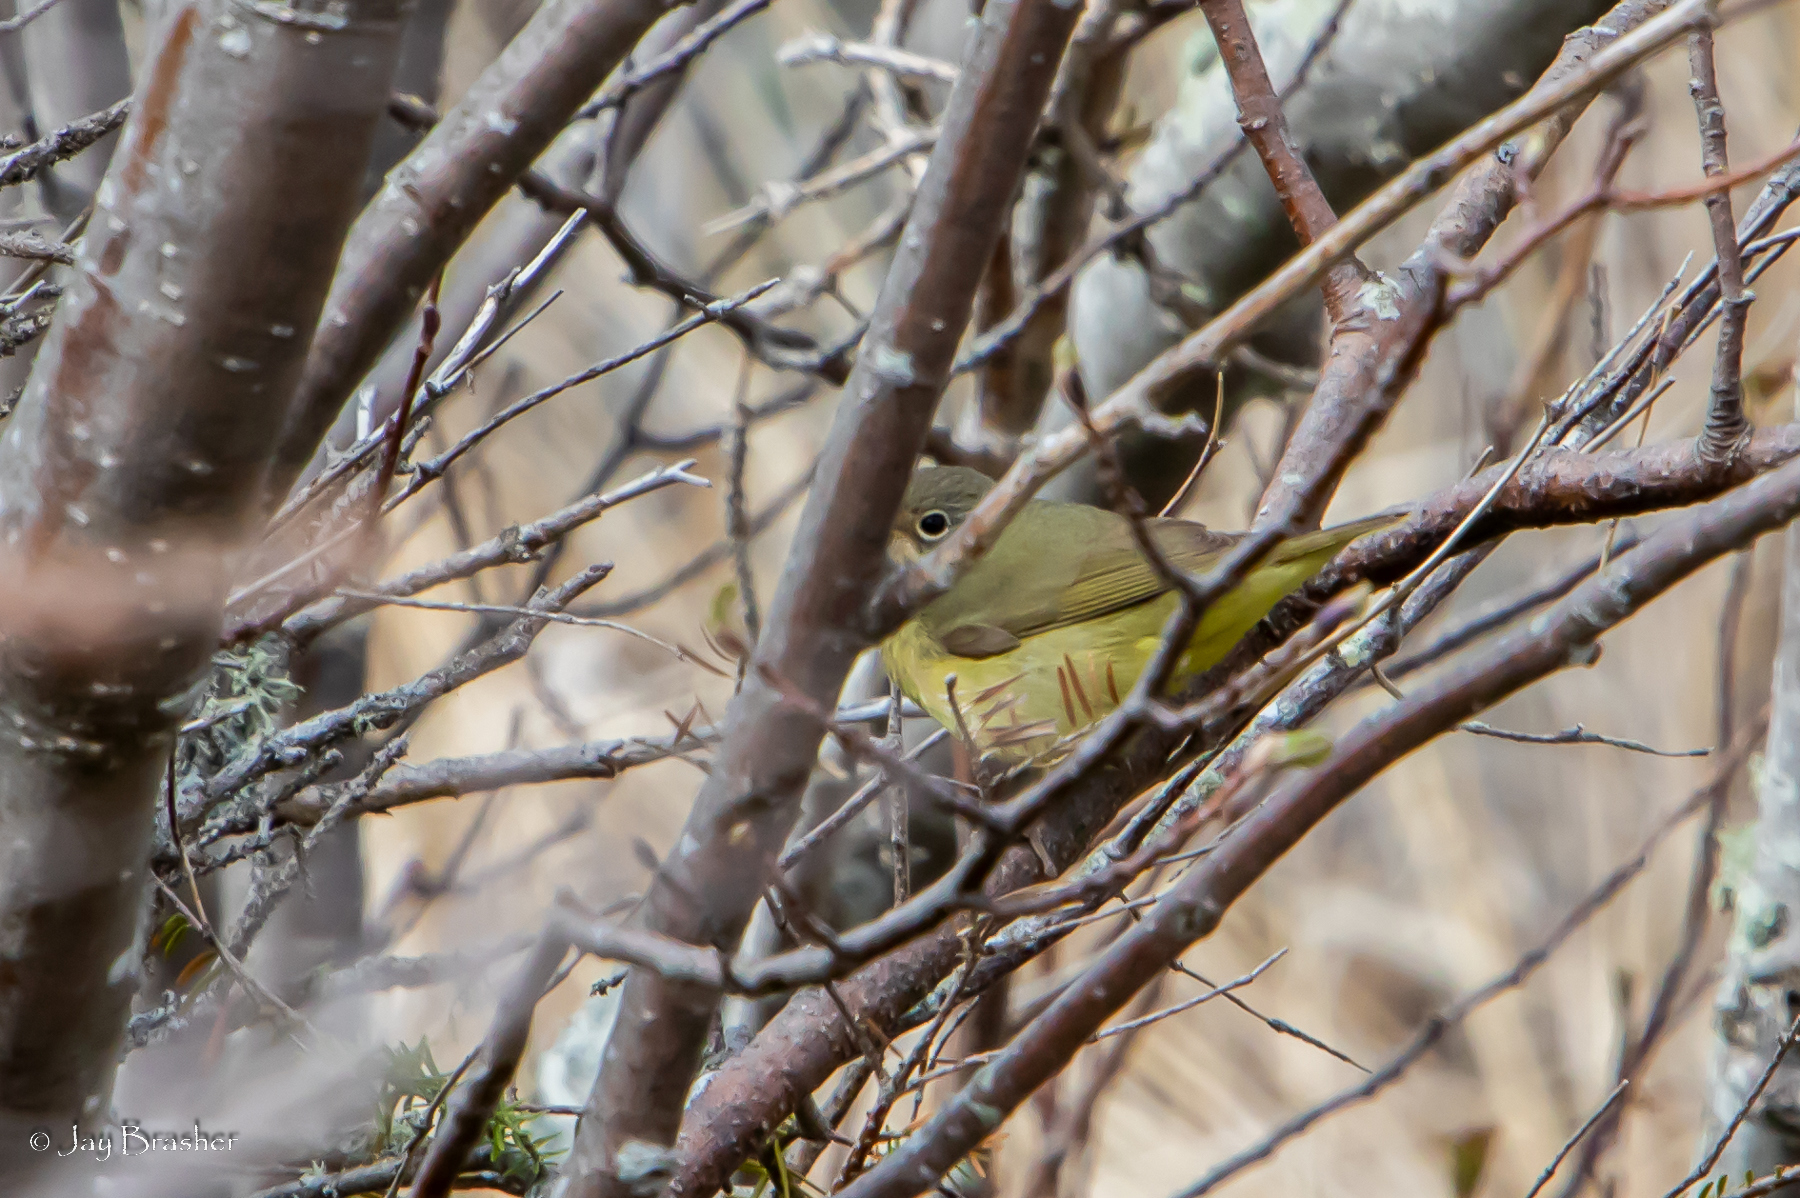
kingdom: Animalia
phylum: Chordata
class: Aves
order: Passeriformes
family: Parulidae
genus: Leiothlypis
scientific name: Leiothlypis ruficapilla
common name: Nashville warbler
